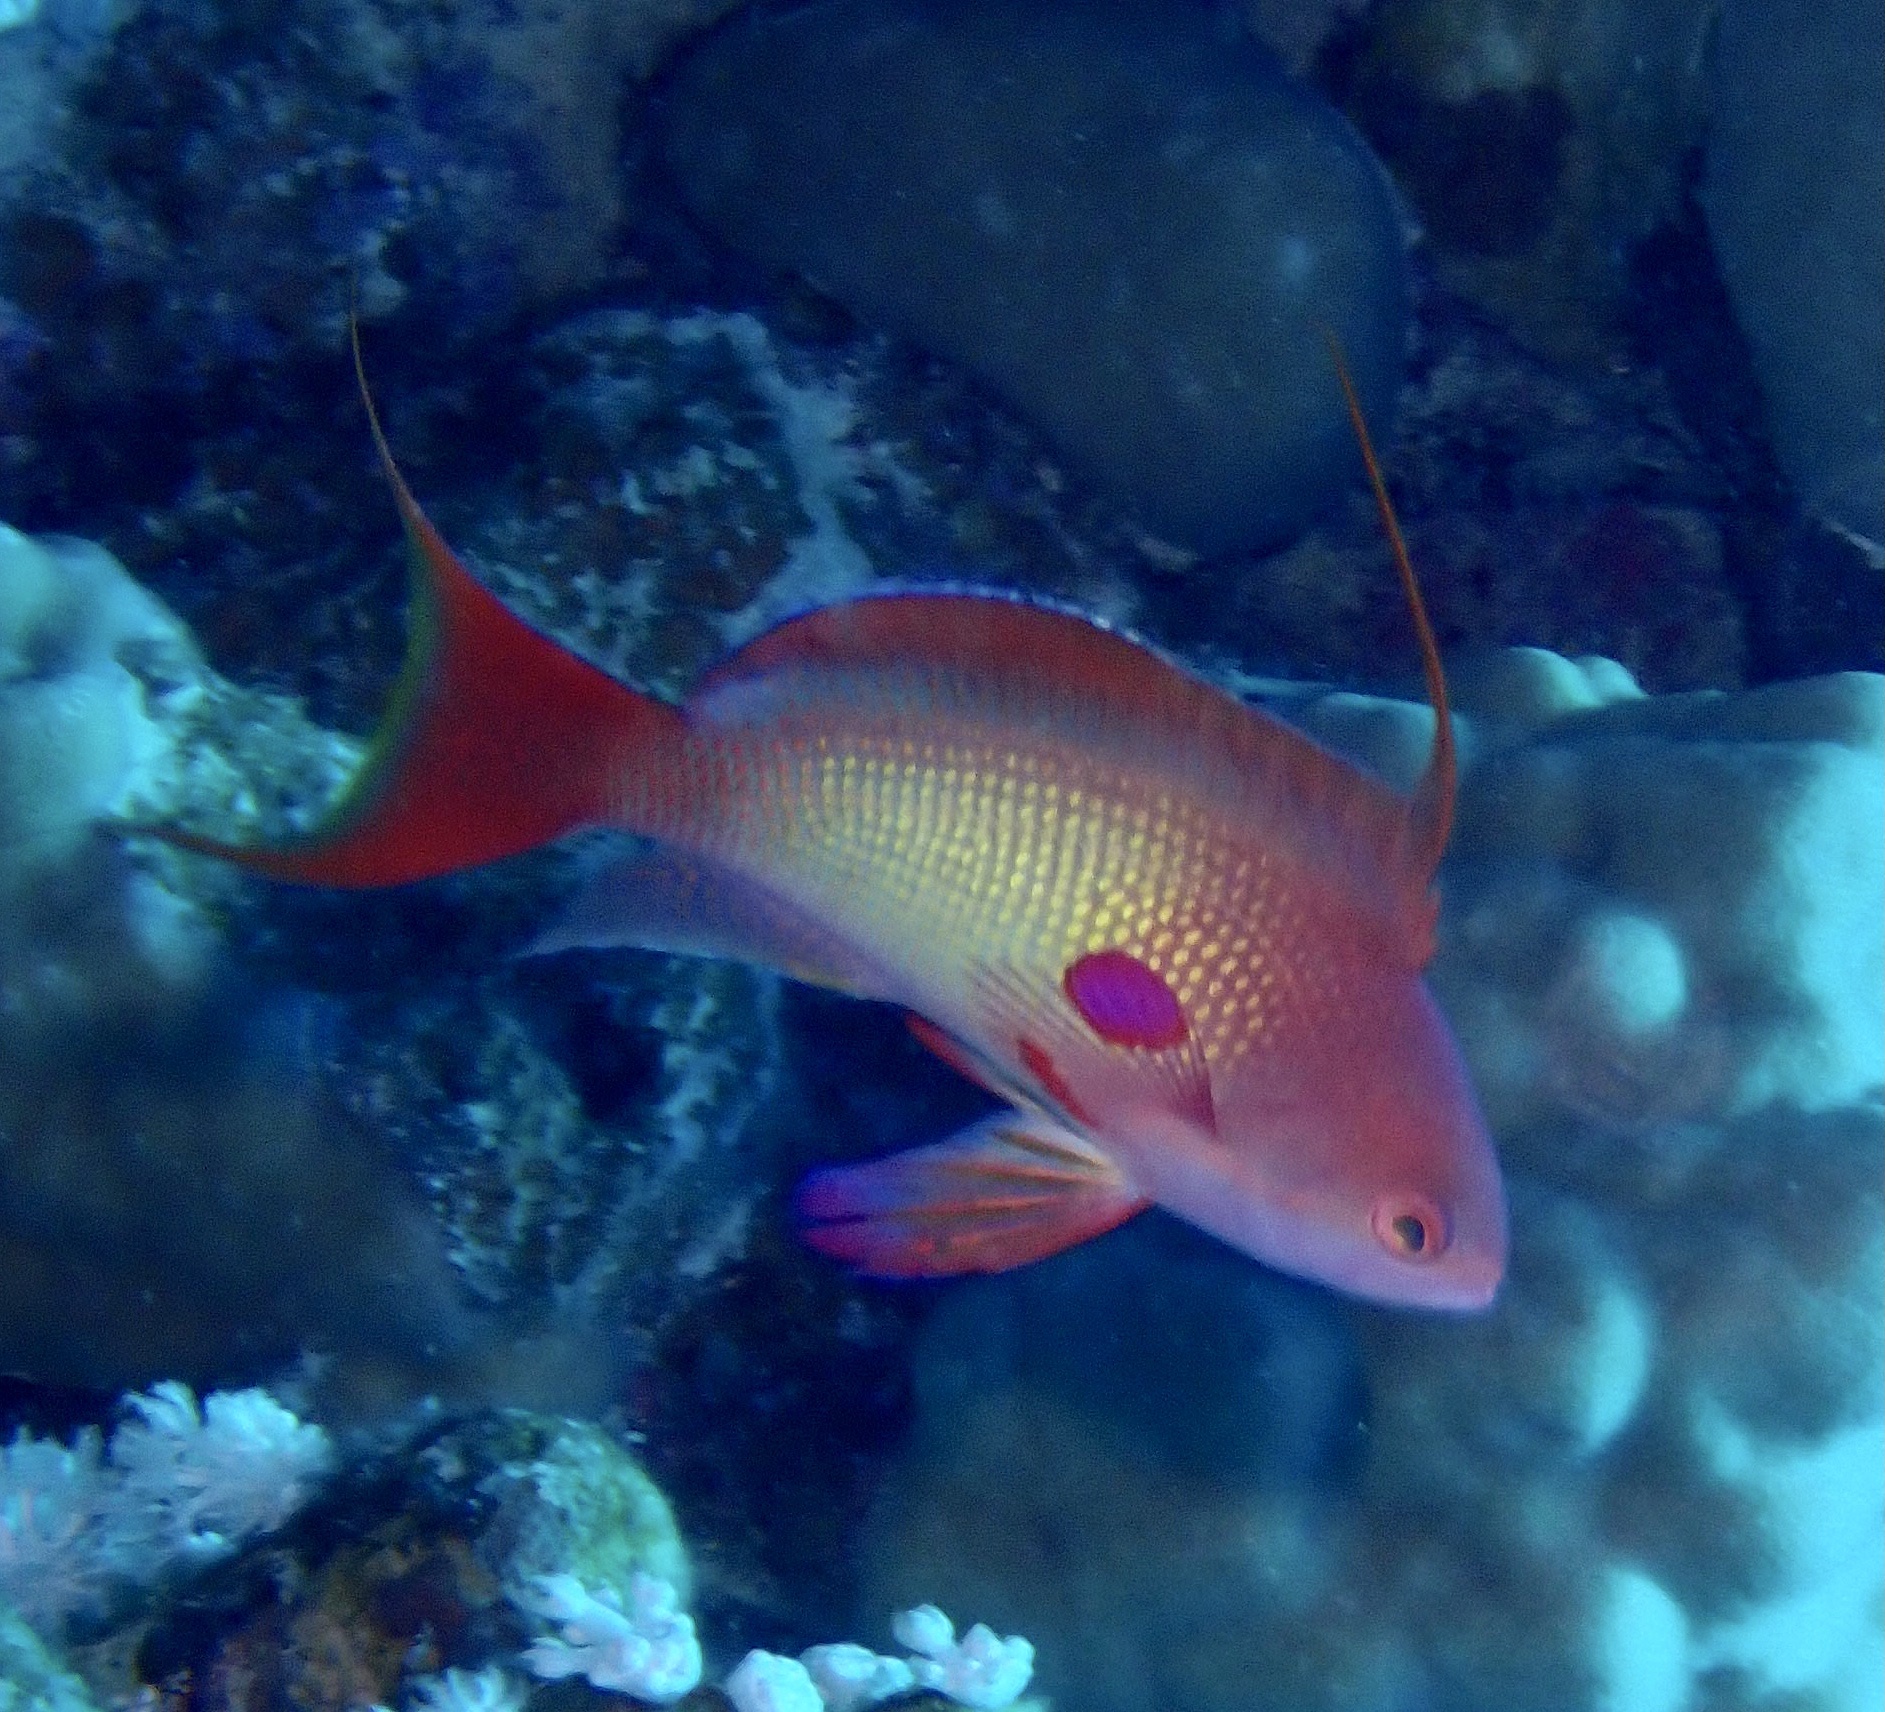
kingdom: Animalia
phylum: Chordata
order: Perciformes
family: Serranidae
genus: Pseudanthias
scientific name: Pseudanthias squamipinnis
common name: Scalefin anthias
